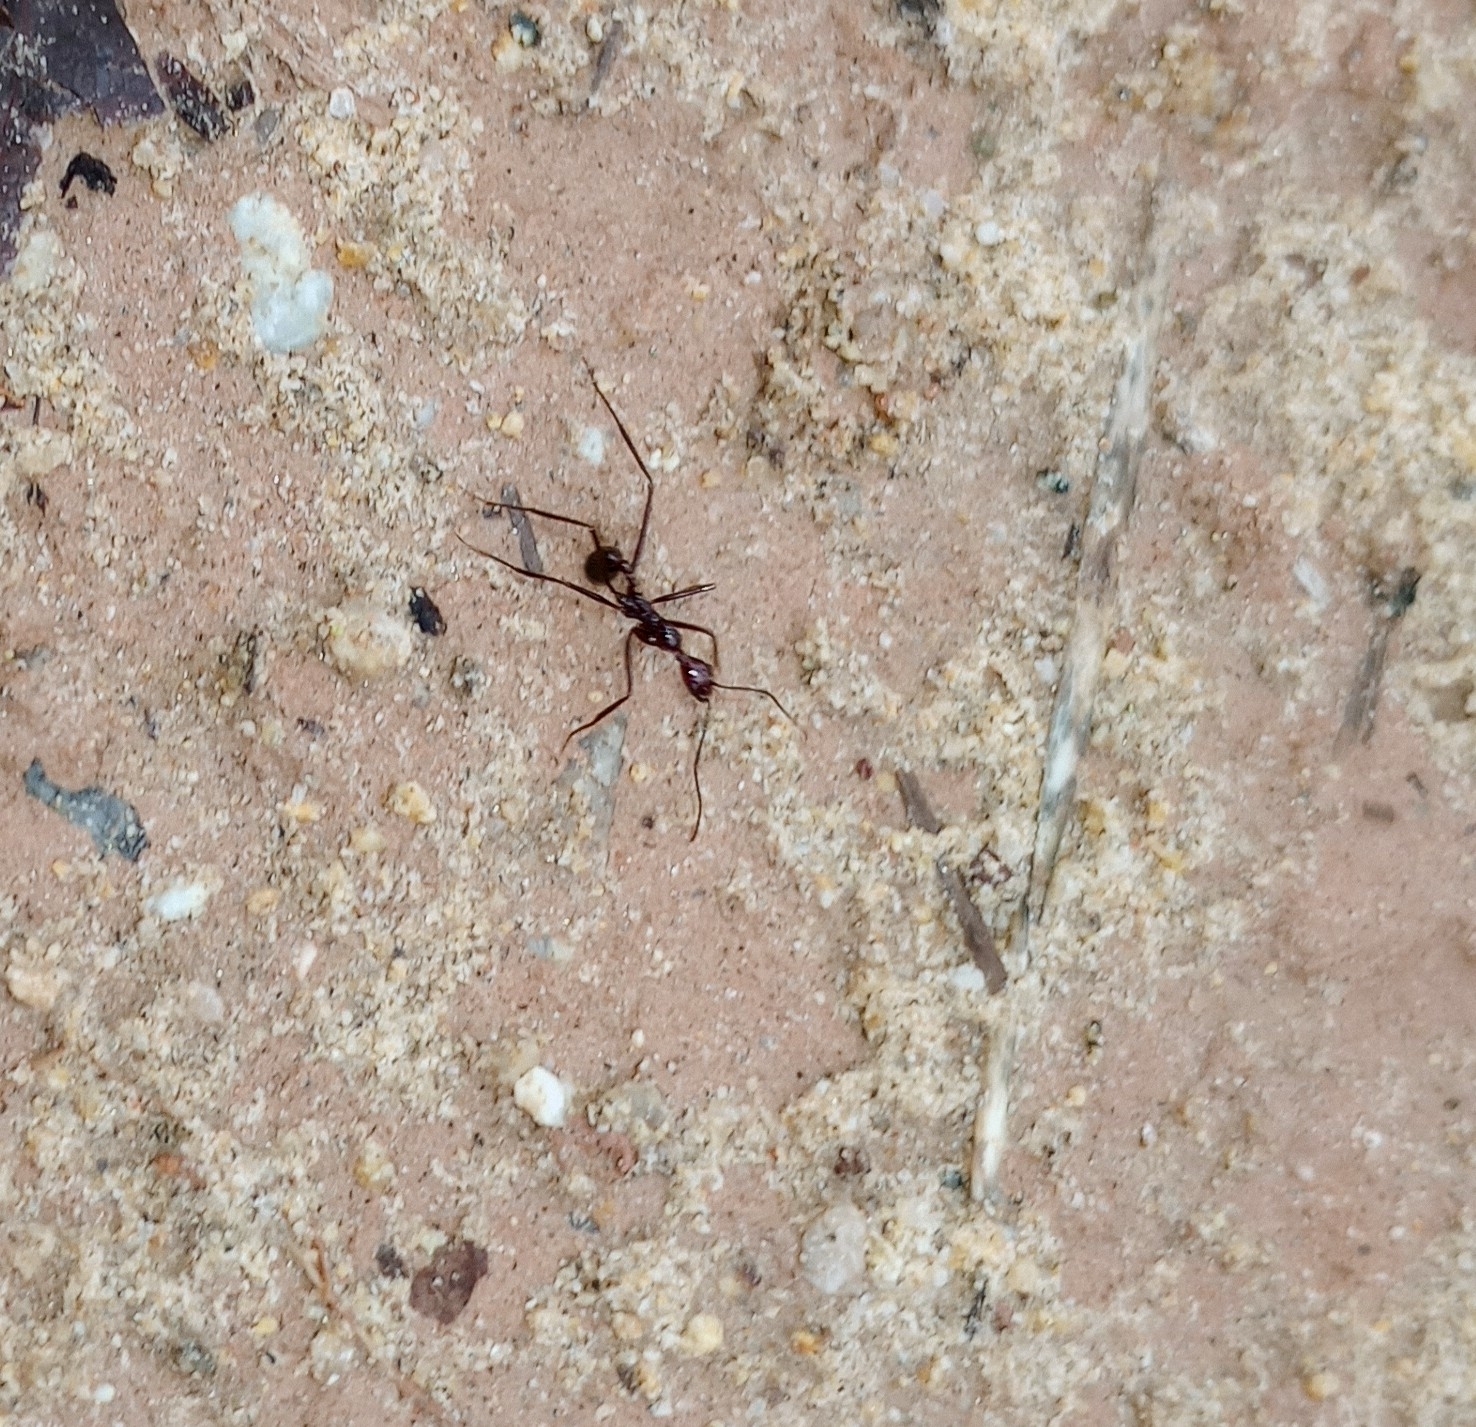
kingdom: Animalia
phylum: Arthropoda
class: Insecta
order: Hymenoptera
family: Formicidae
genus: Aphaenogaster
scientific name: Aphaenogaster beccarii
